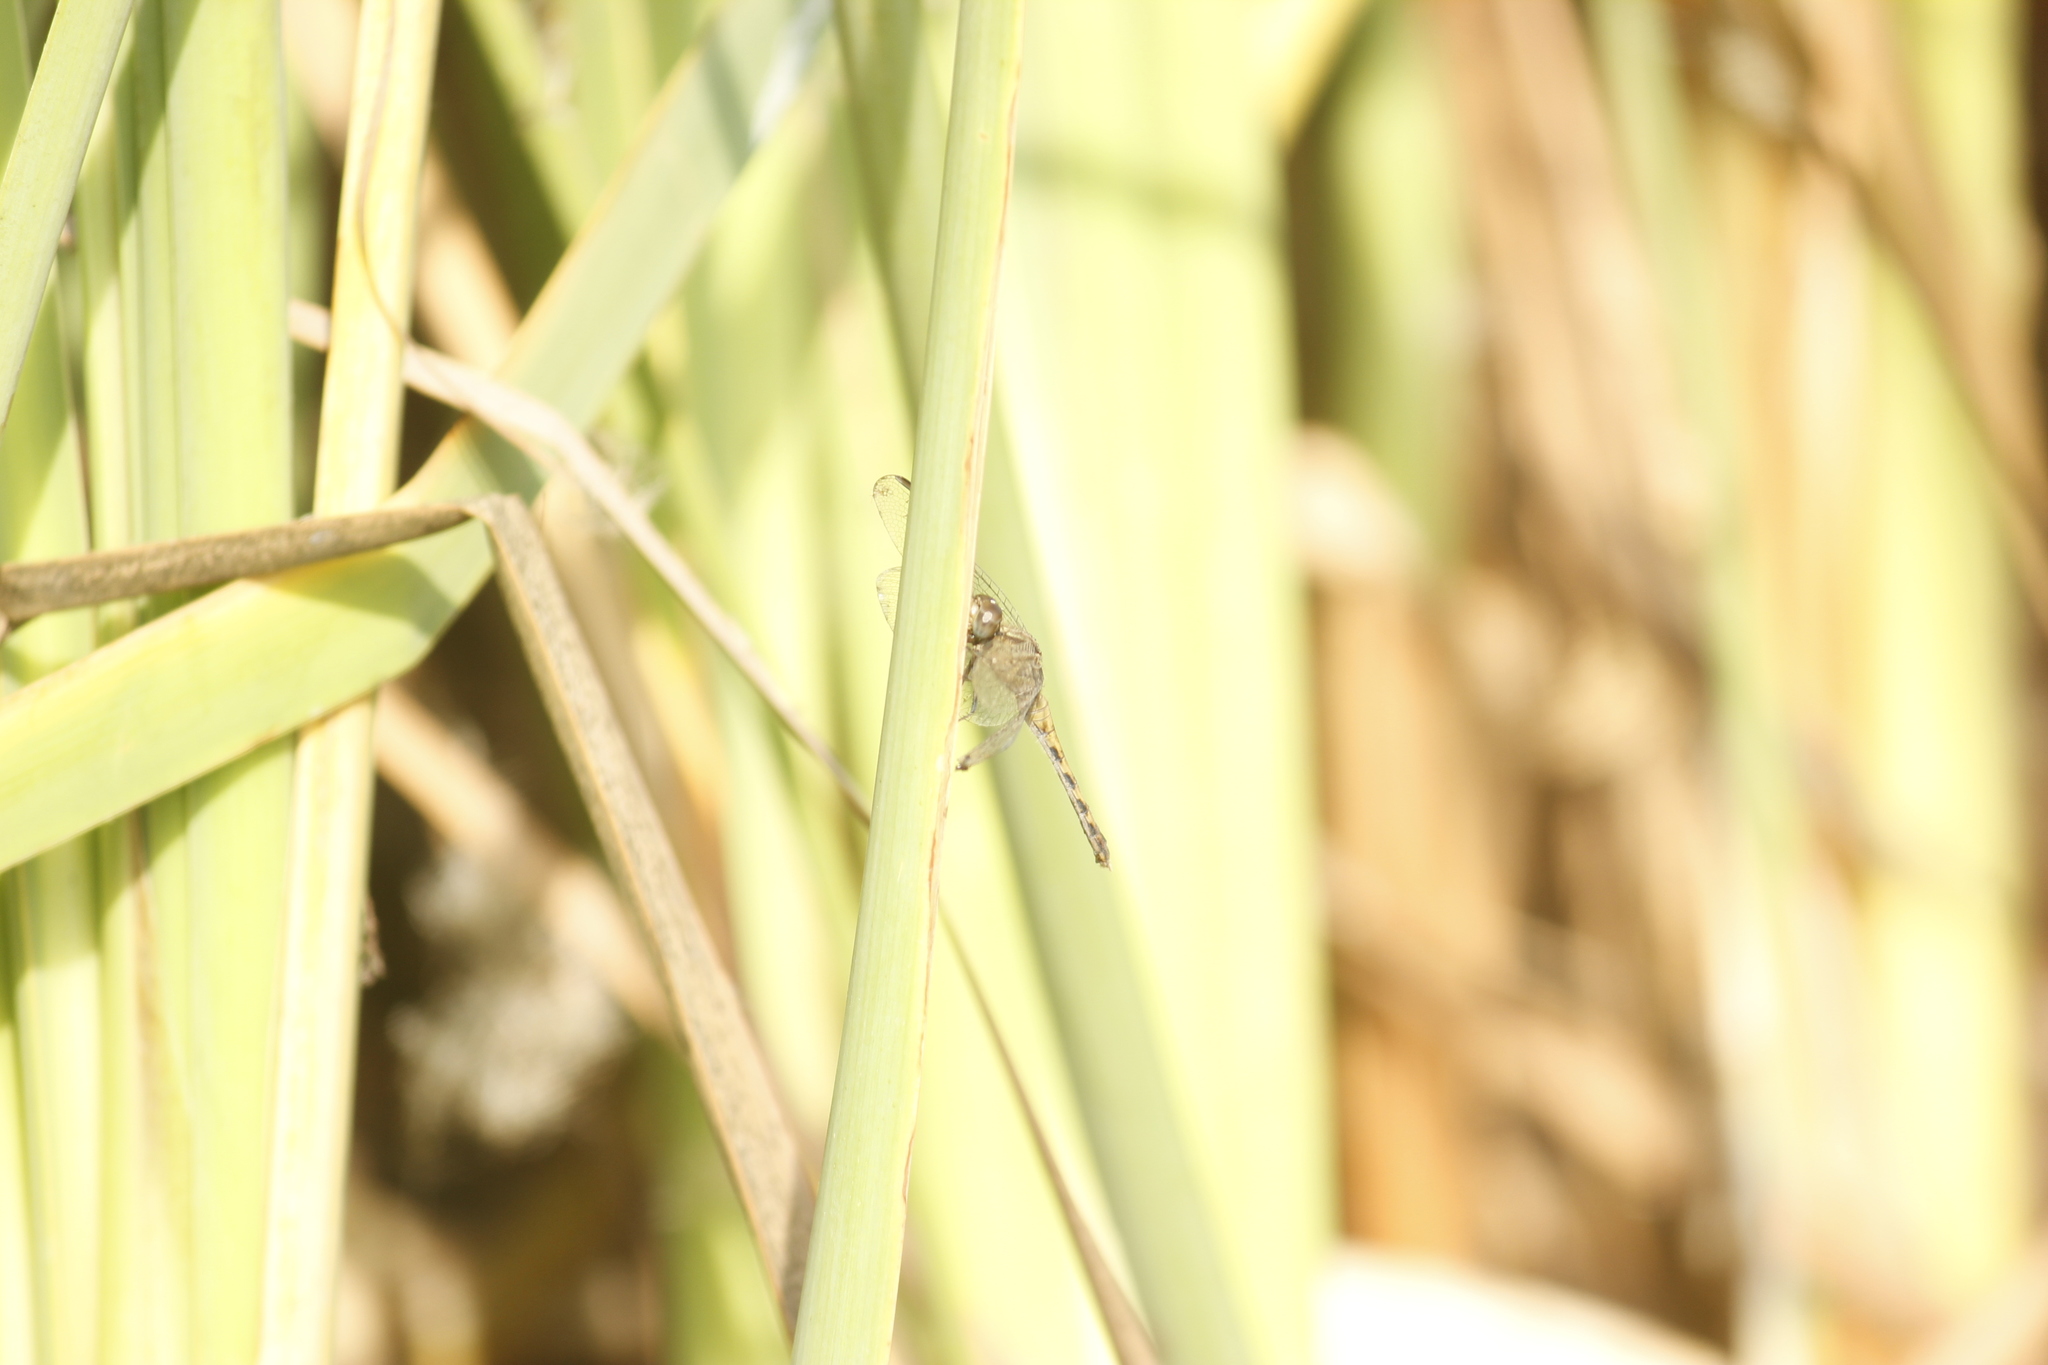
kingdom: Animalia
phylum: Arthropoda
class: Insecta
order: Odonata
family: Libellulidae
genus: Erythrodiplax
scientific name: Erythrodiplax cleopatra
